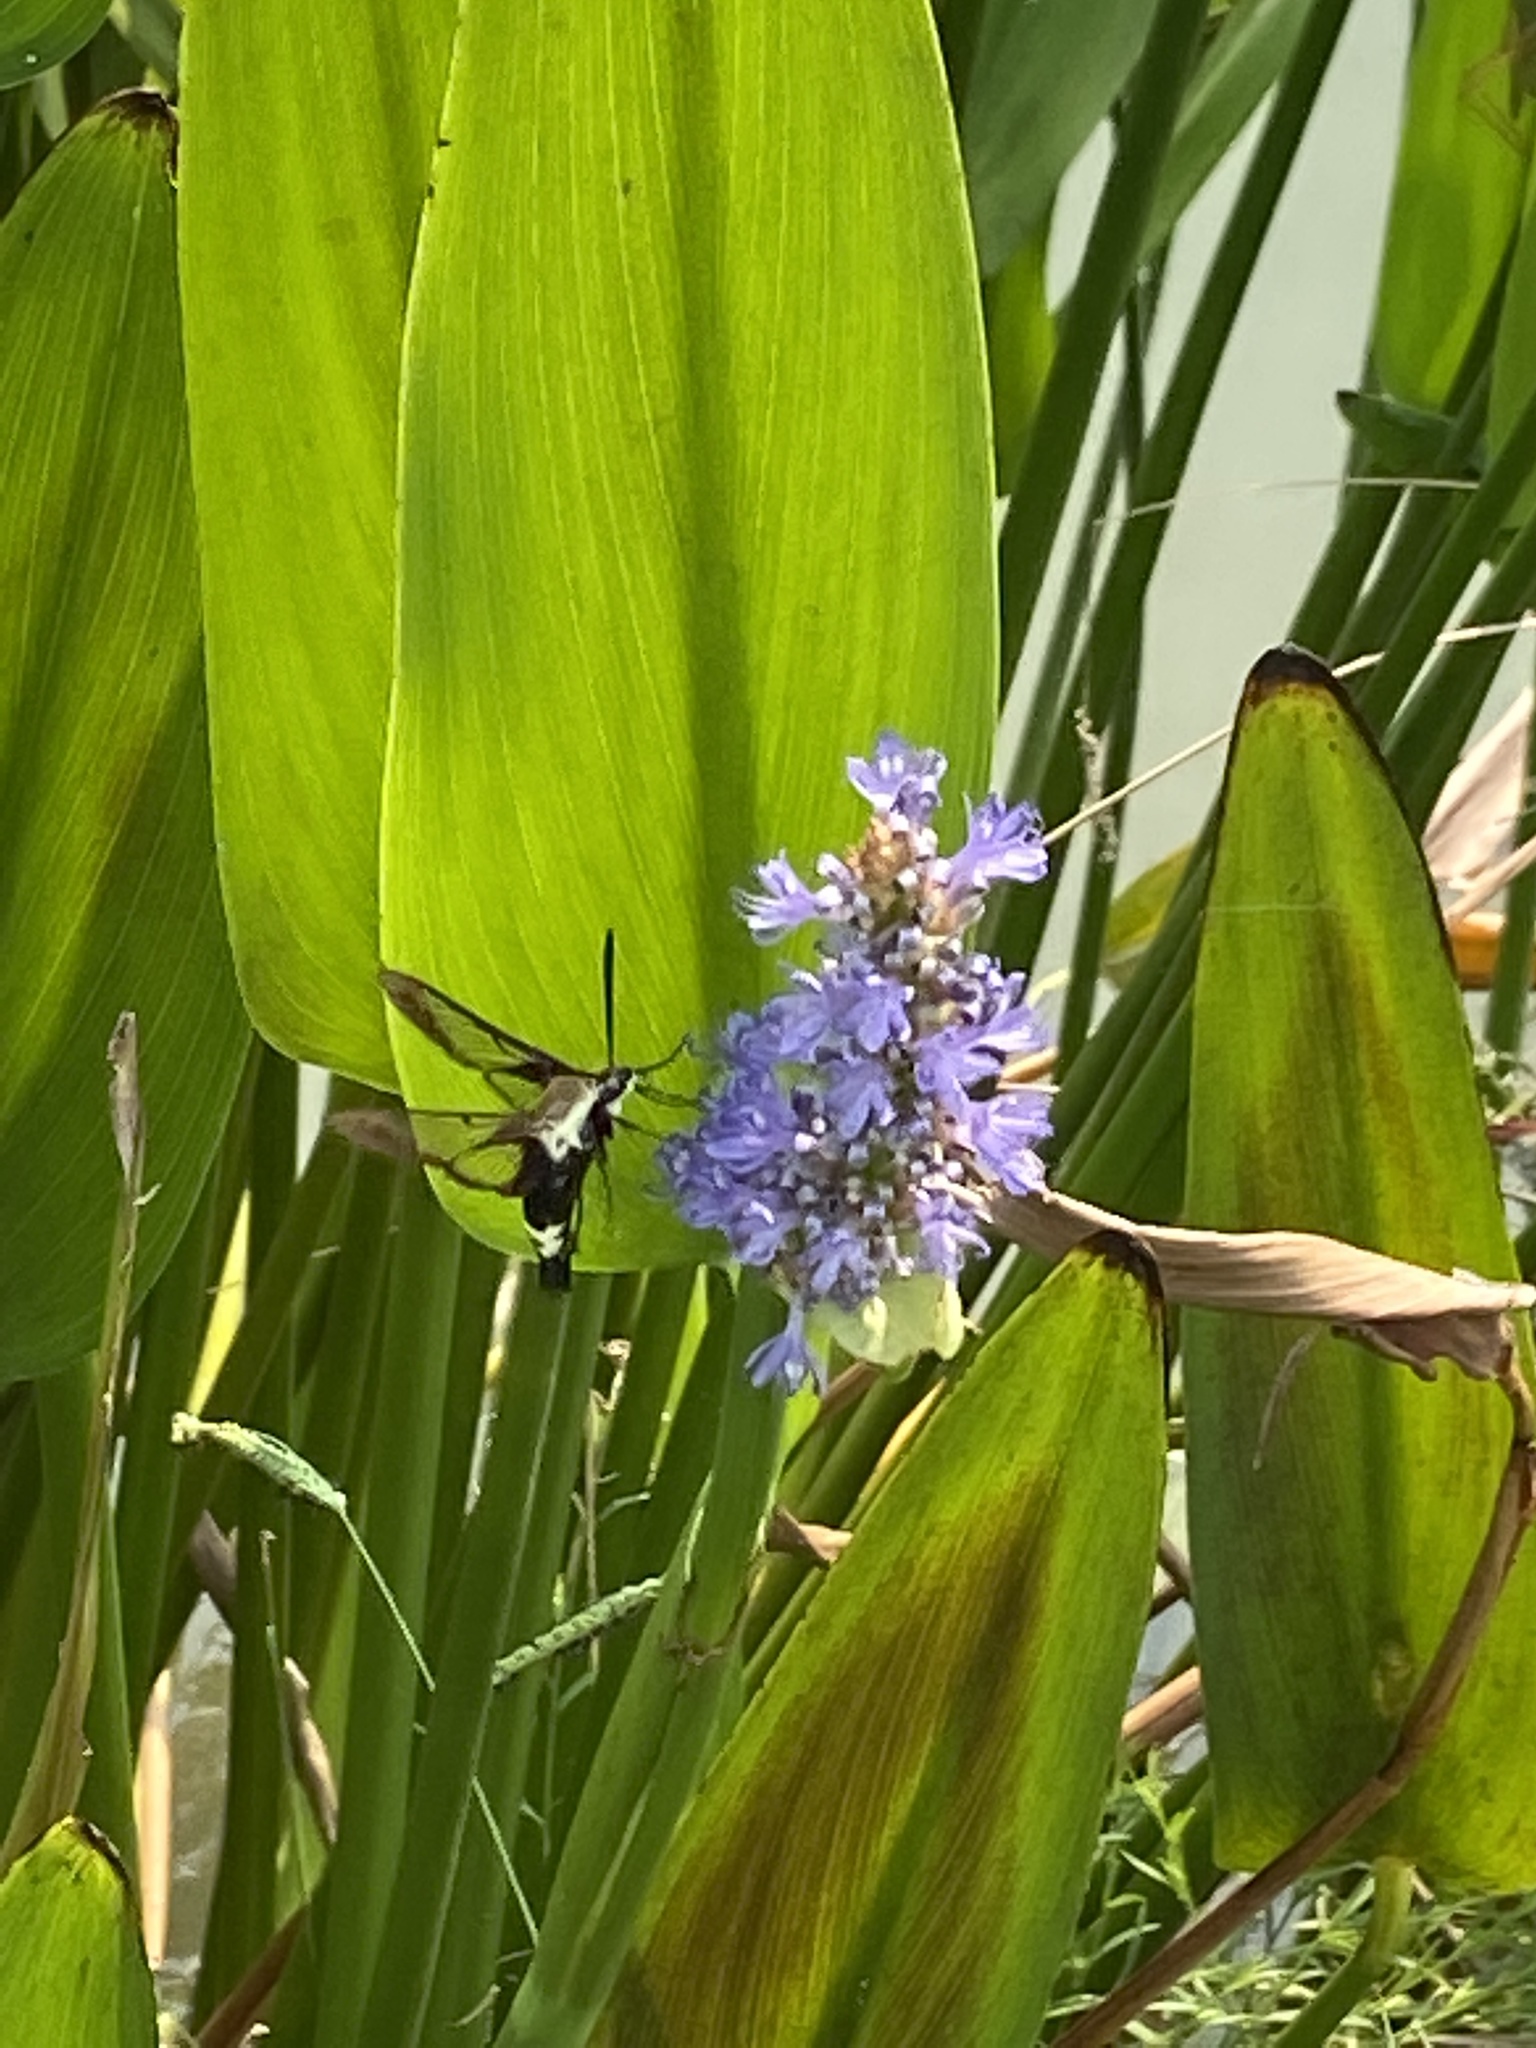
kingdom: Animalia
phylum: Arthropoda
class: Insecta
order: Lepidoptera
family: Sphingidae
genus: Hemaris
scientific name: Hemaris diffinis
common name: Bumblebee moth
